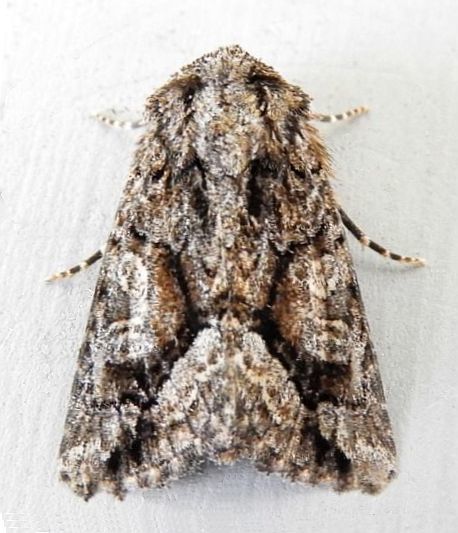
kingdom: Animalia
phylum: Arthropoda
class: Insecta
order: Lepidoptera
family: Noctuidae
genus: Pseudanarta
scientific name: Pseudanarta singula
